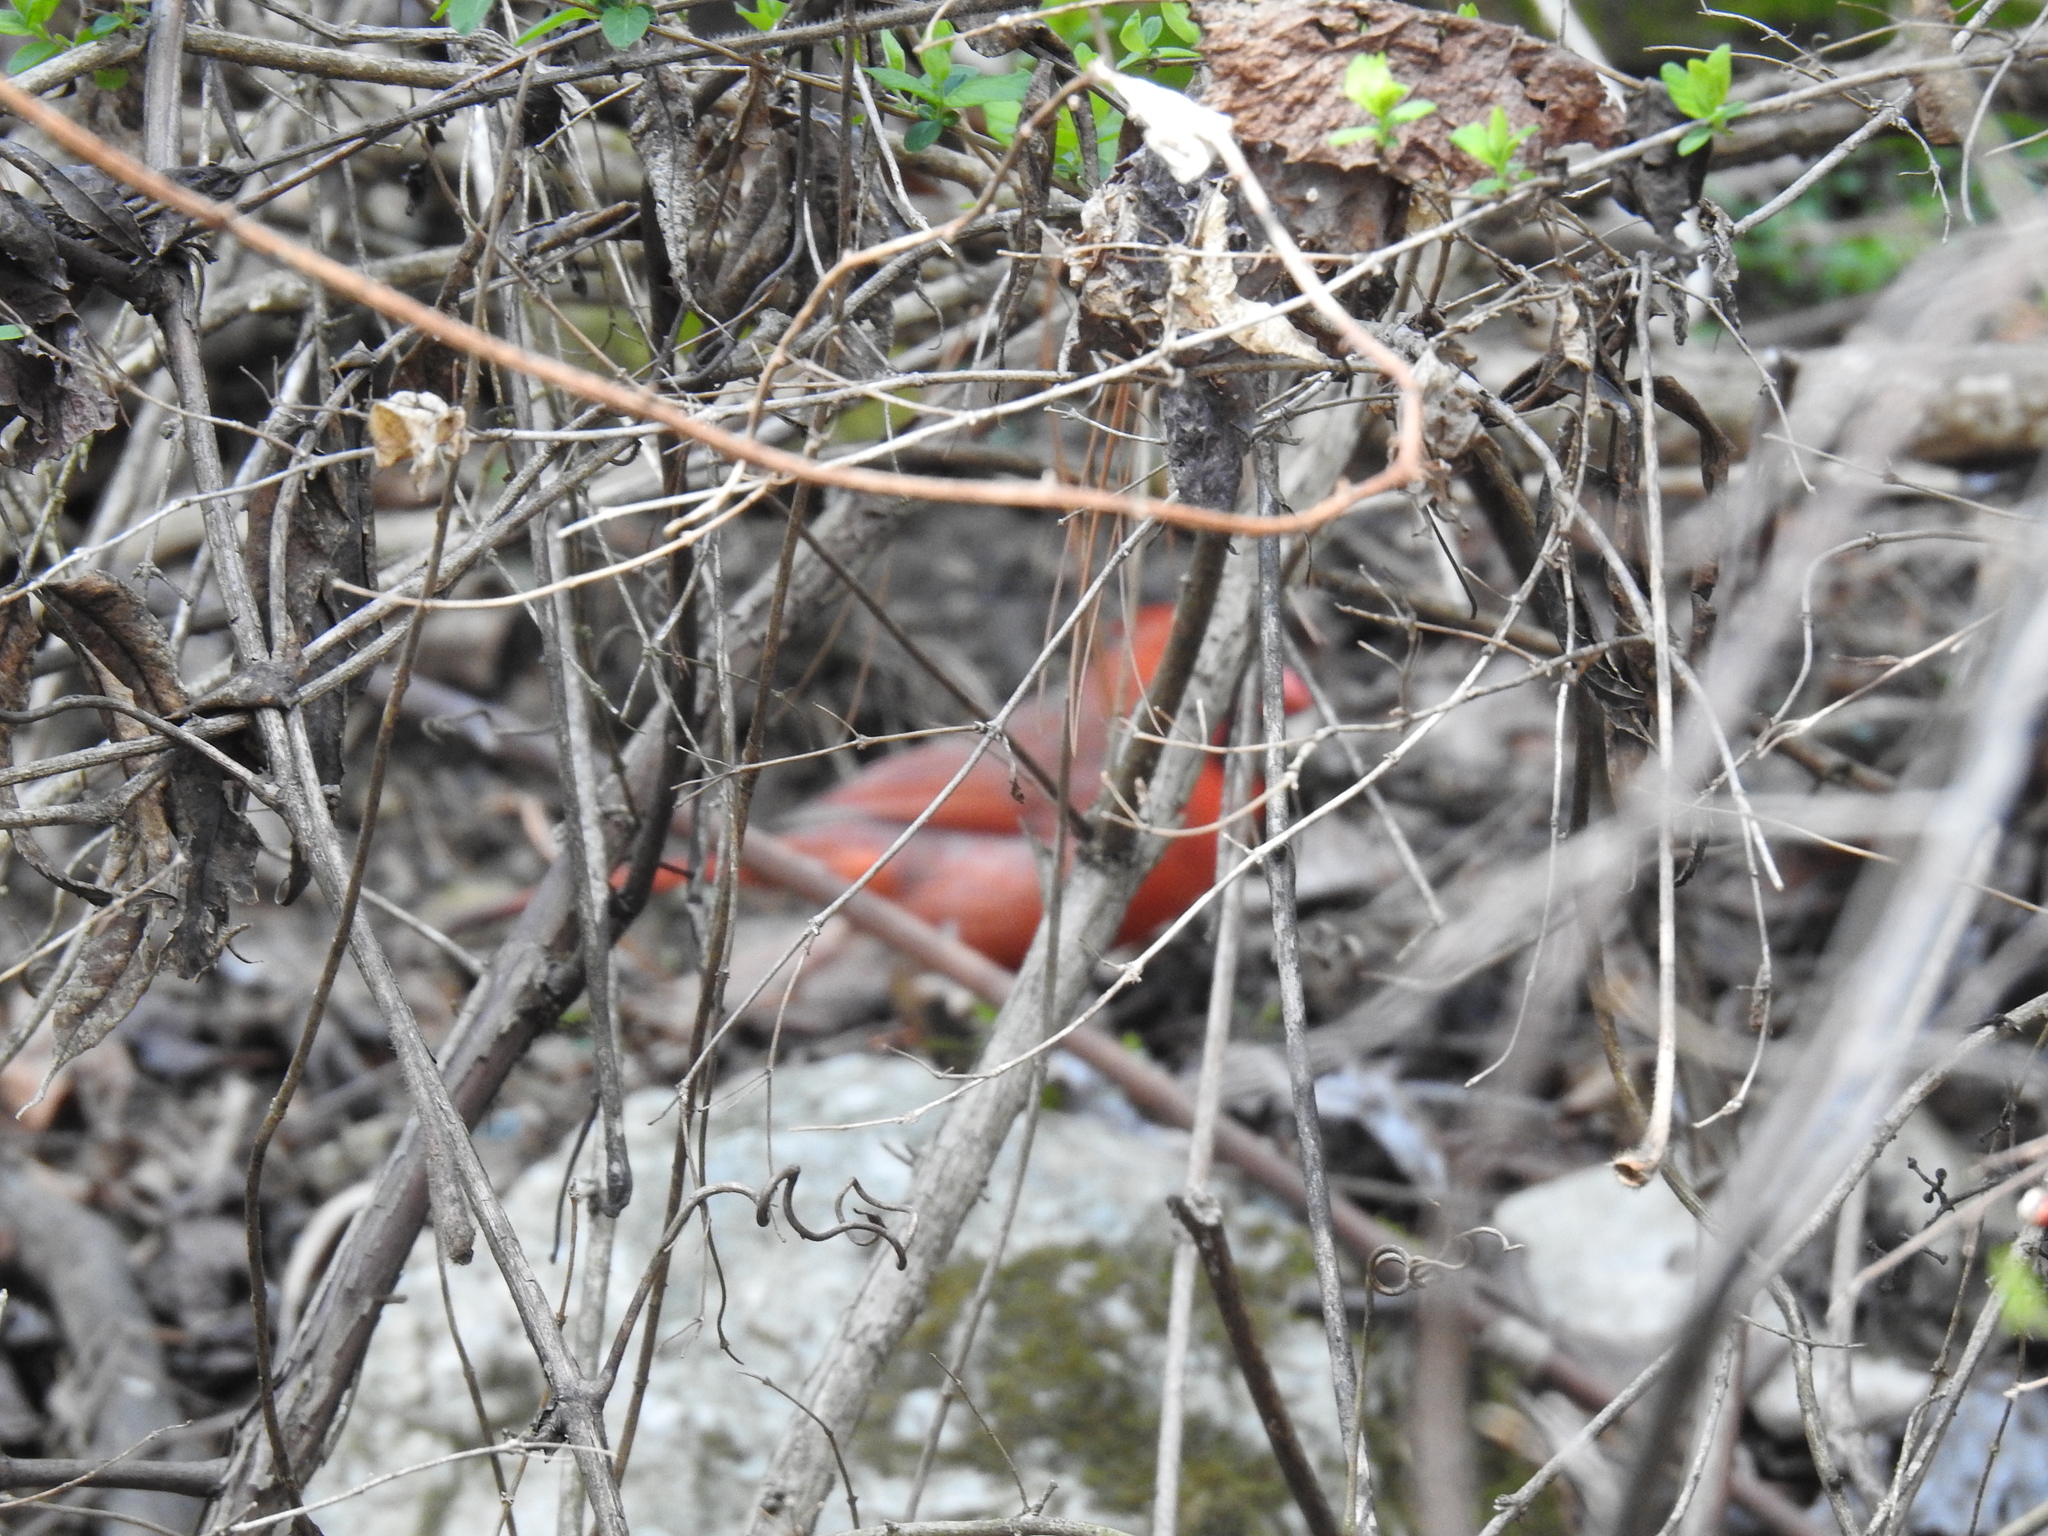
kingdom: Animalia
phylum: Chordata
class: Aves
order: Passeriformes
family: Cardinalidae
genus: Cardinalis
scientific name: Cardinalis cardinalis
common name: Northern cardinal
